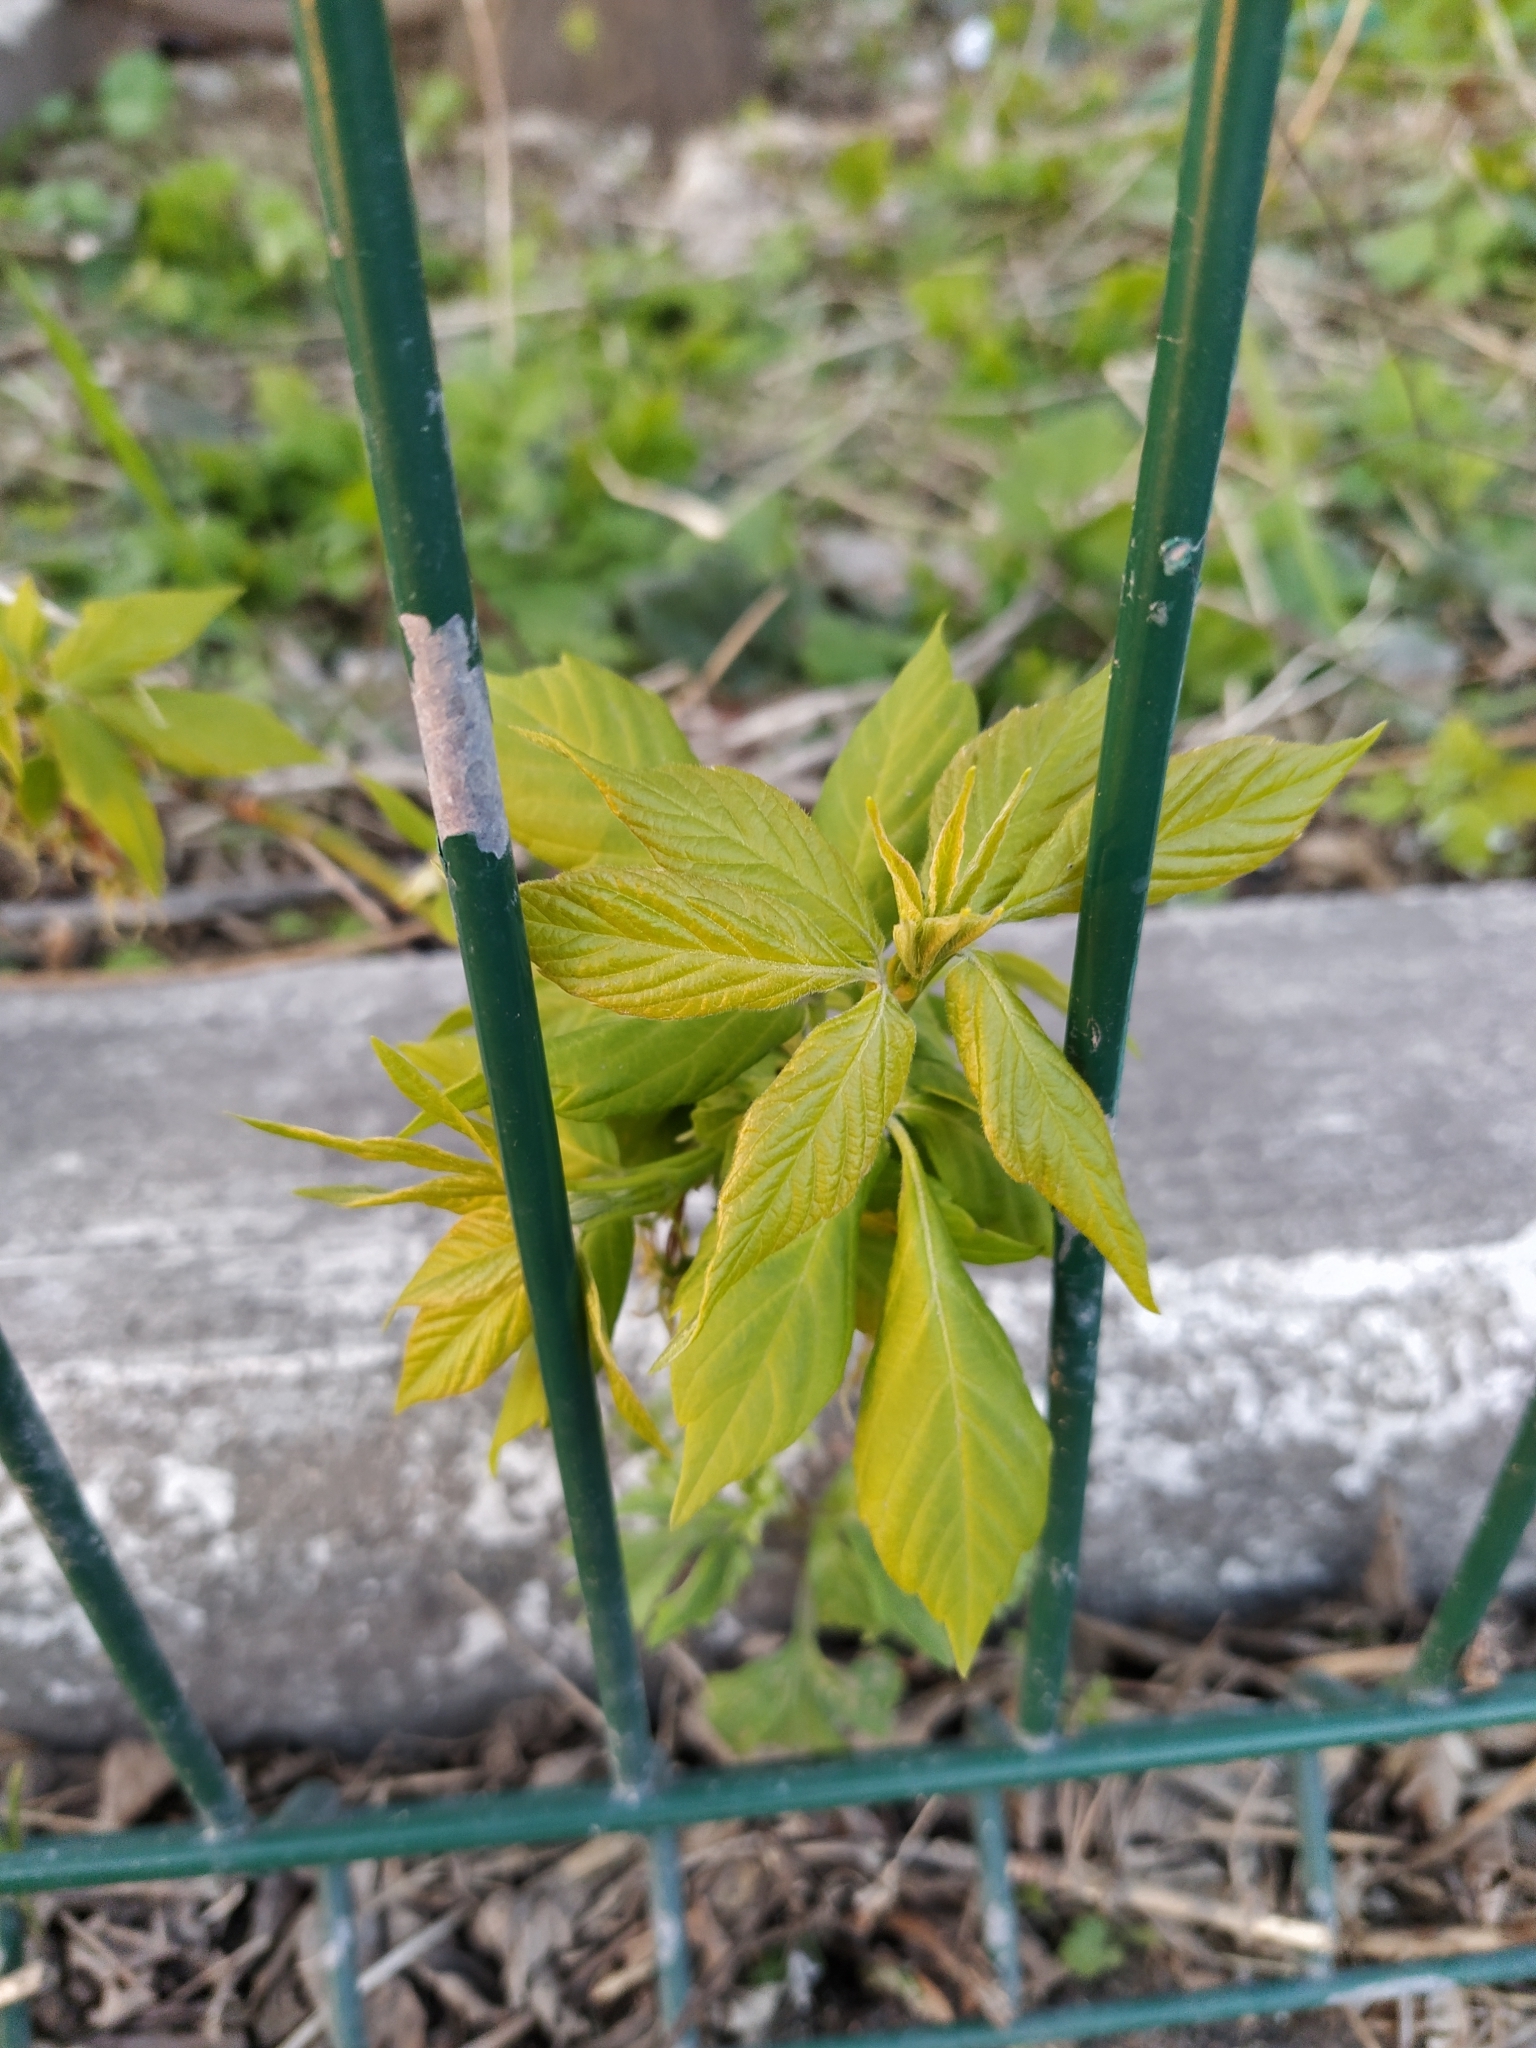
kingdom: Plantae
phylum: Tracheophyta
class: Magnoliopsida
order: Sapindales
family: Sapindaceae
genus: Acer
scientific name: Acer negundo
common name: Ashleaf maple
